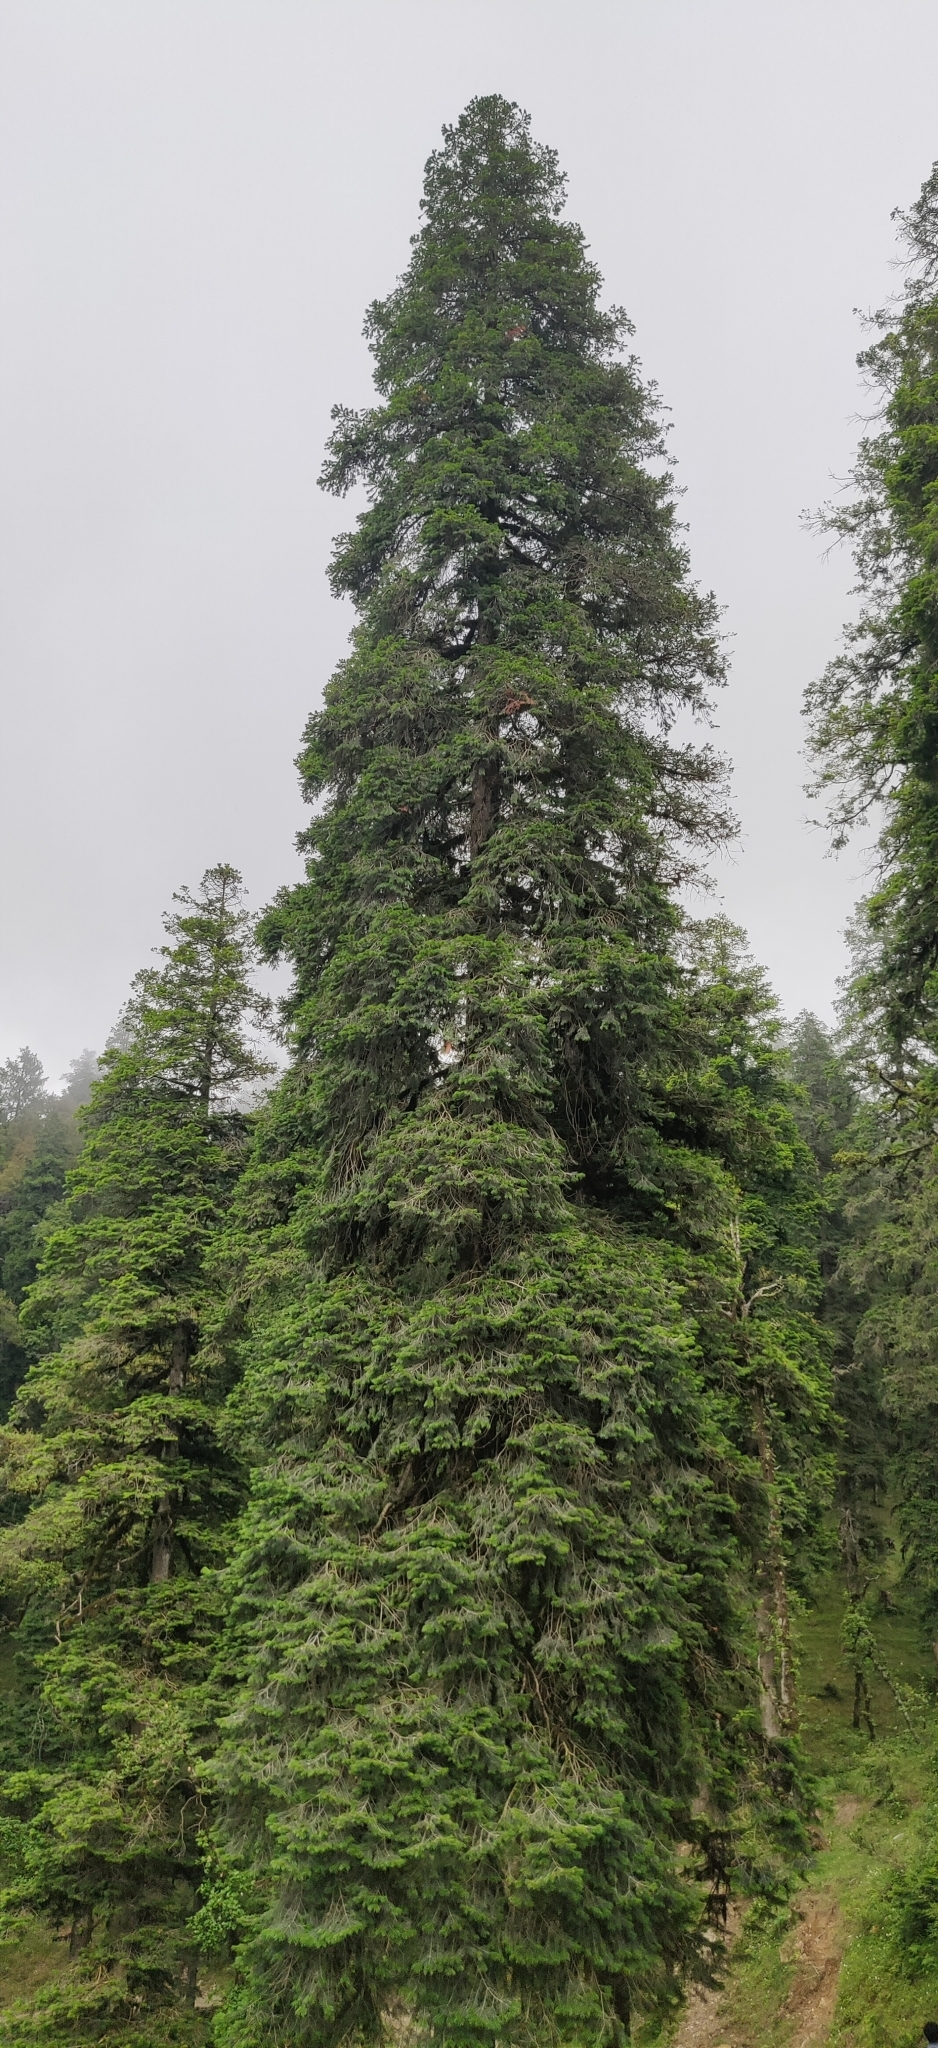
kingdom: Plantae
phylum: Tracheophyta
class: Pinopsida
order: Pinales
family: Pinaceae
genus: Abies
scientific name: Abies pindrow
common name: Pindrow fir
